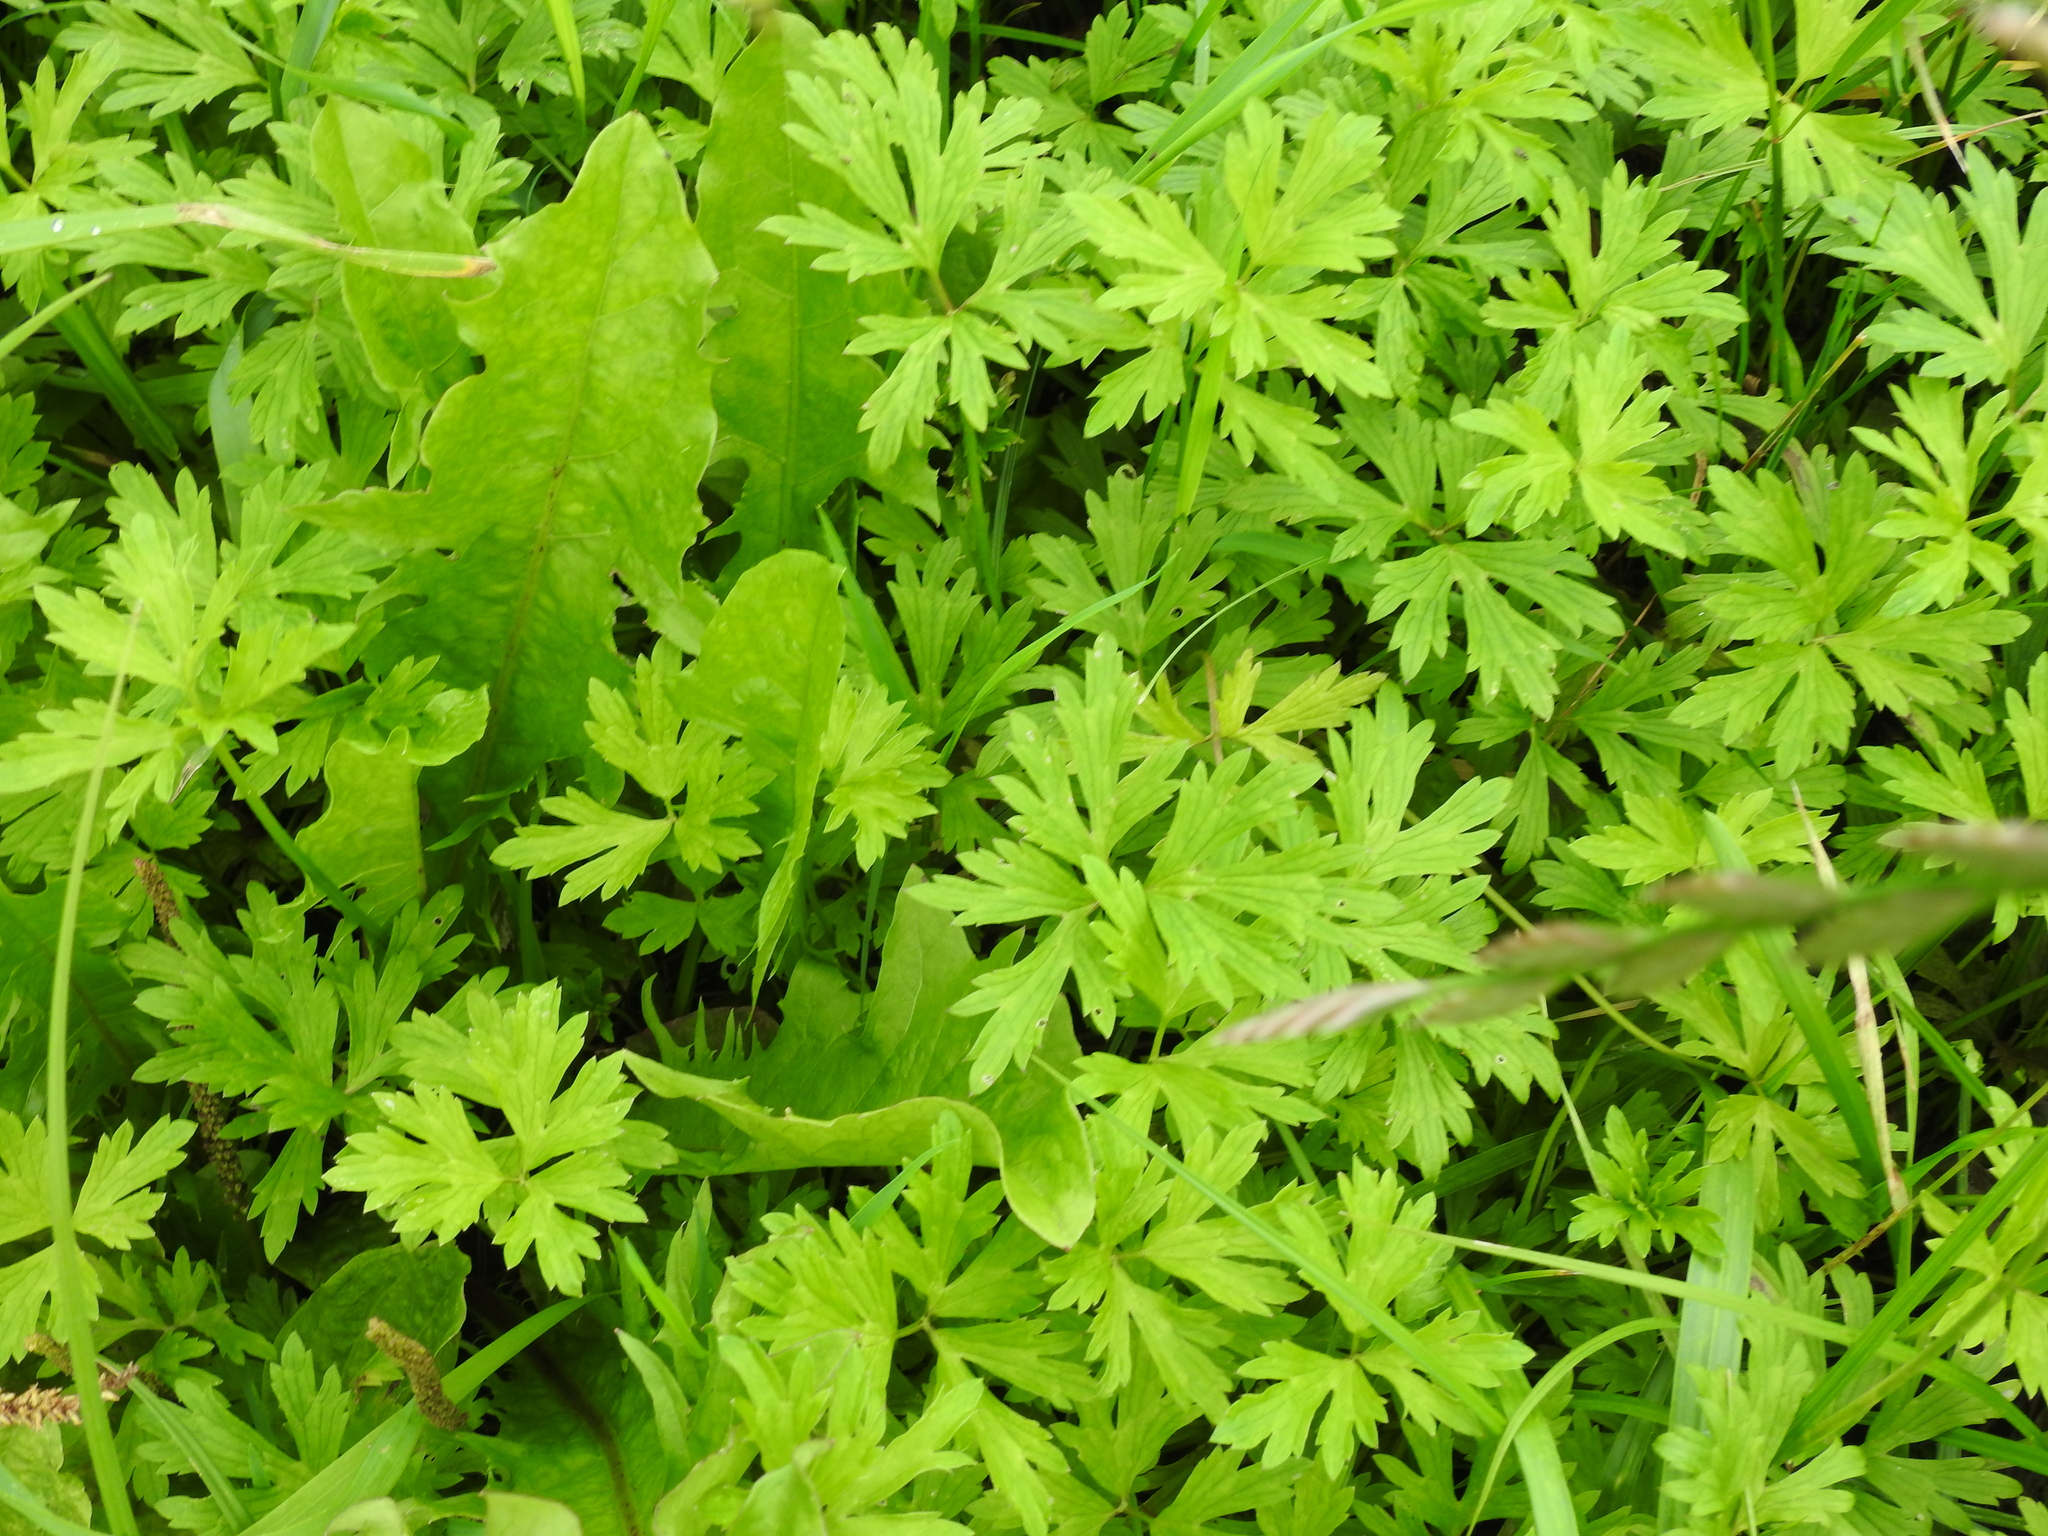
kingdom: Plantae
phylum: Tracheophyta
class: Magnoliopsida
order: Ranunculales
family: Ranunculaceae
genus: Ranunculus
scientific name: Ranunculus repens
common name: Creeping buttercup
